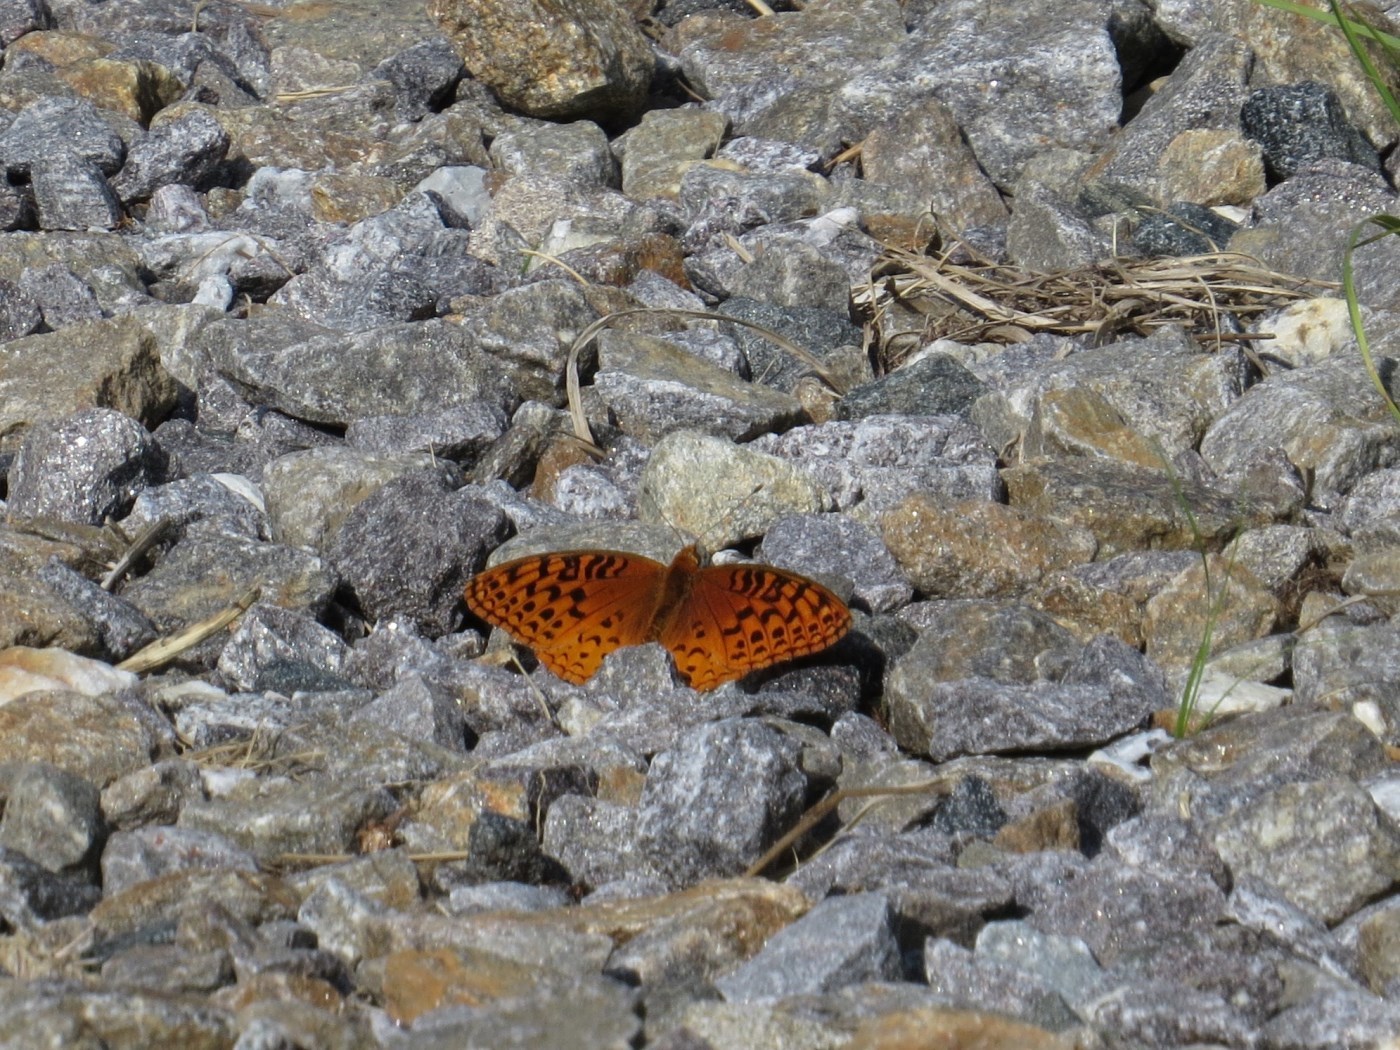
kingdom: Animalia
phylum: Arthropoda
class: Insecta
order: Lepidoptera
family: Nymphalidae
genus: Speyeria
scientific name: Speyeria cybele
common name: Great spangled fritillary
